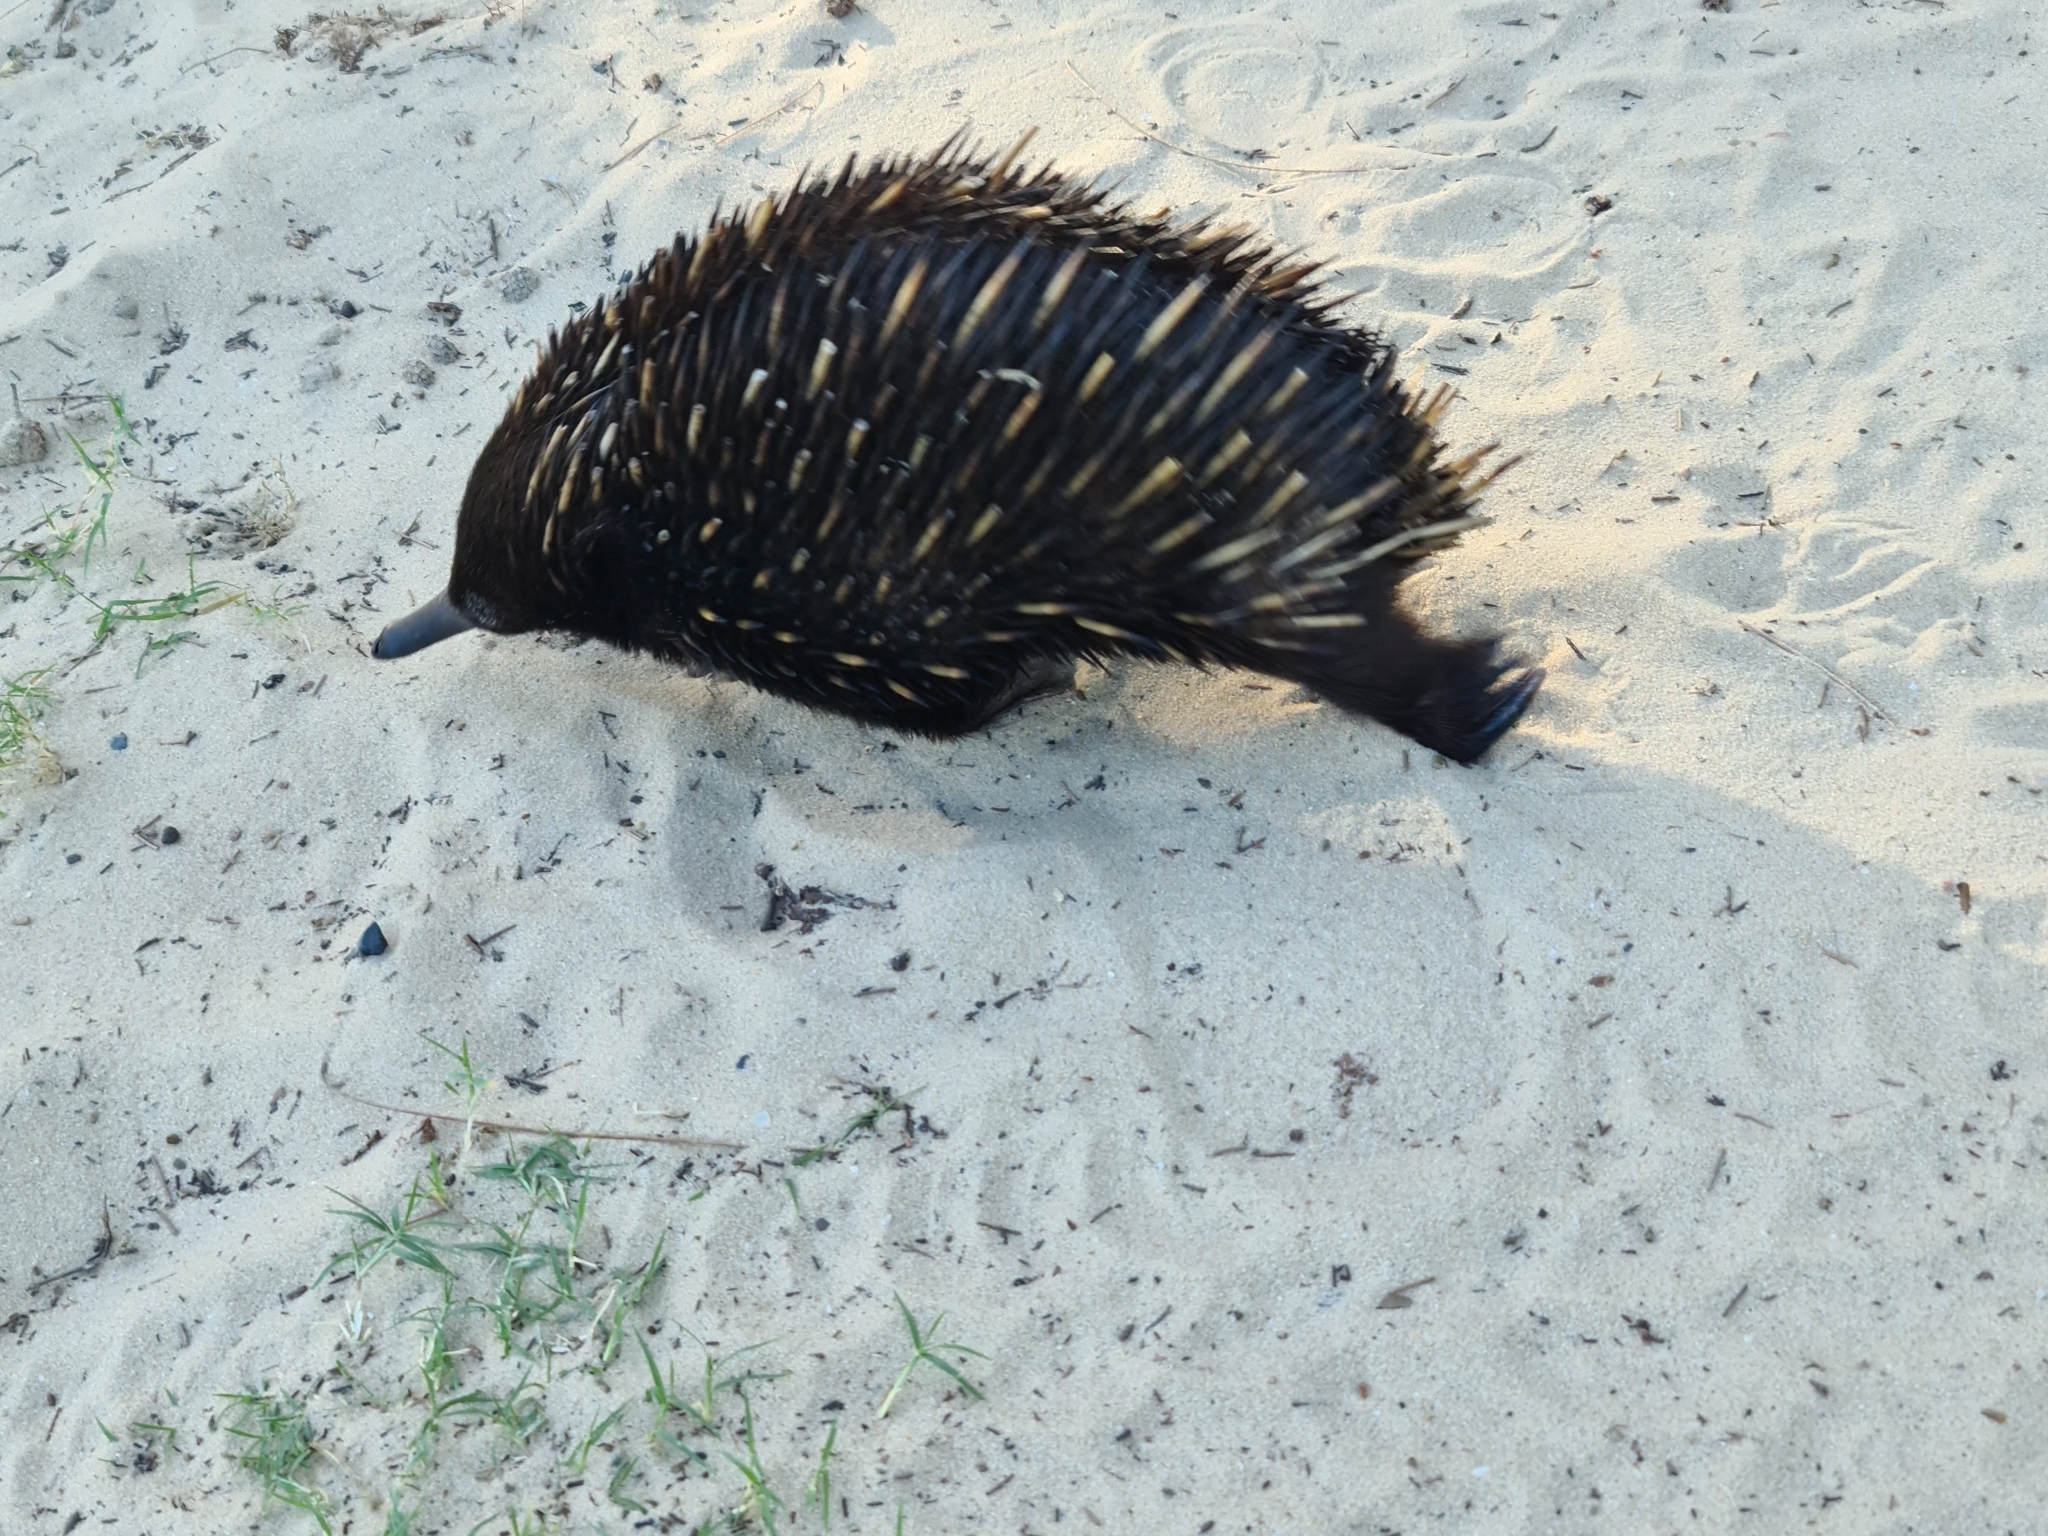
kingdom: Animalia
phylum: Chordata
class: Mammalia
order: Monotremata
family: Tachyglossidae
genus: Tachyglossus
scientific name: Tachyglossus aculeatus
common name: Short-beaked echidna
